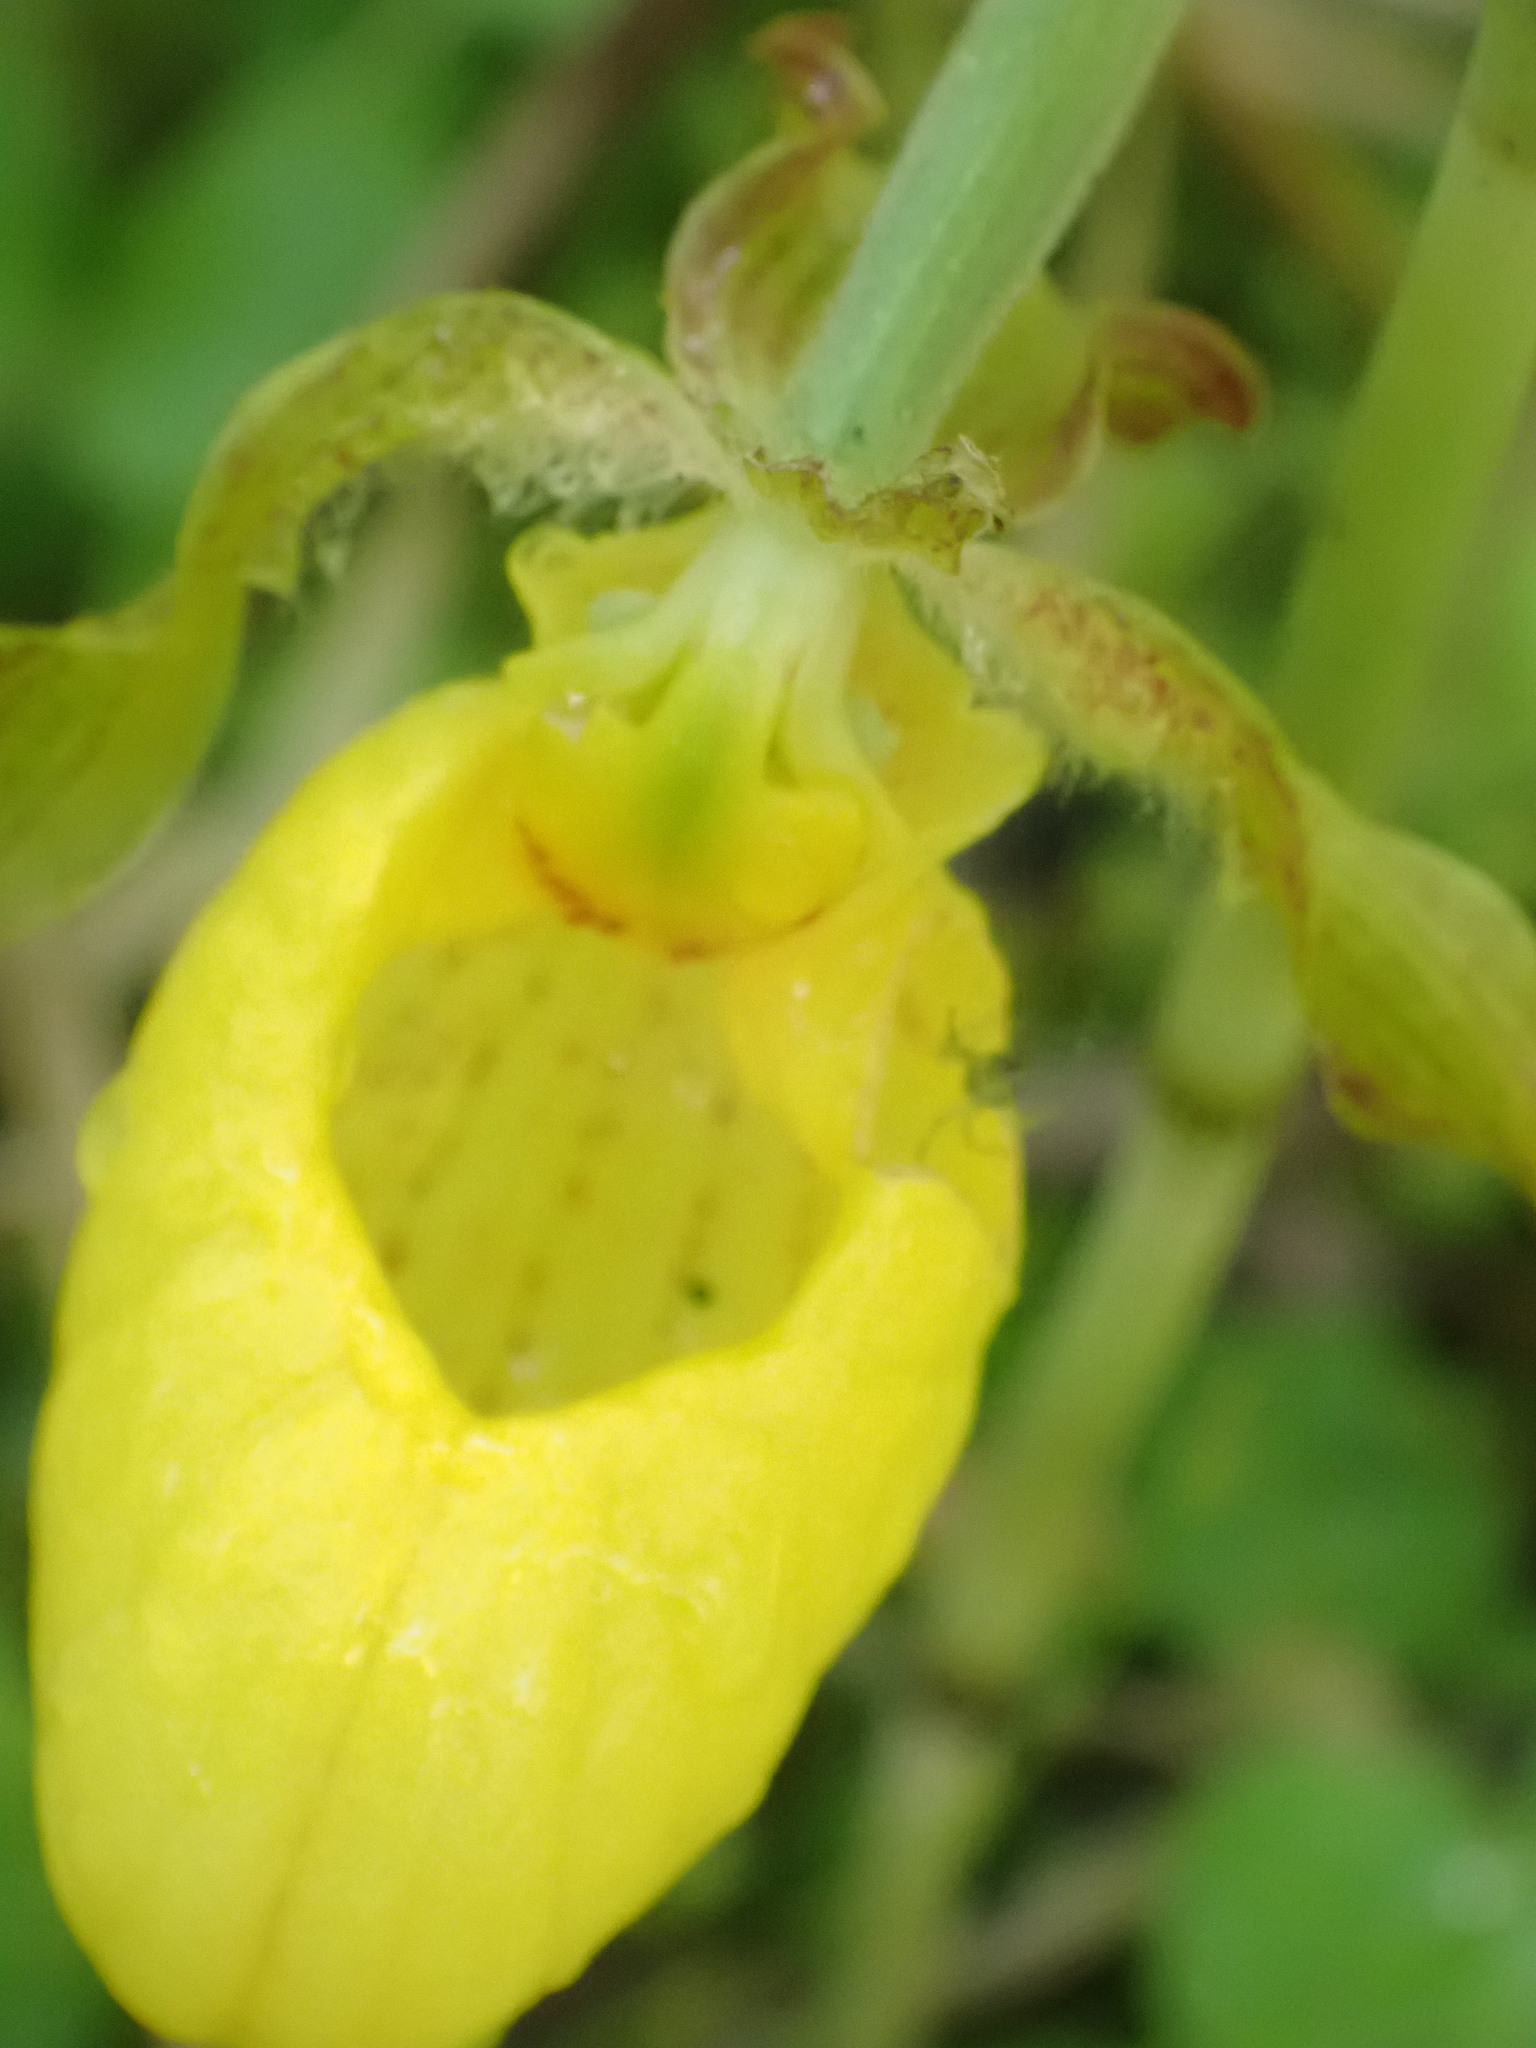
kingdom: Plantae
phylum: Tracheophyta
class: Liliopsida
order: Asparagales
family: Orchidaceae
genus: Cypripedium
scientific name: Cypripedium parviflorum
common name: American yellow lady's-slipper
